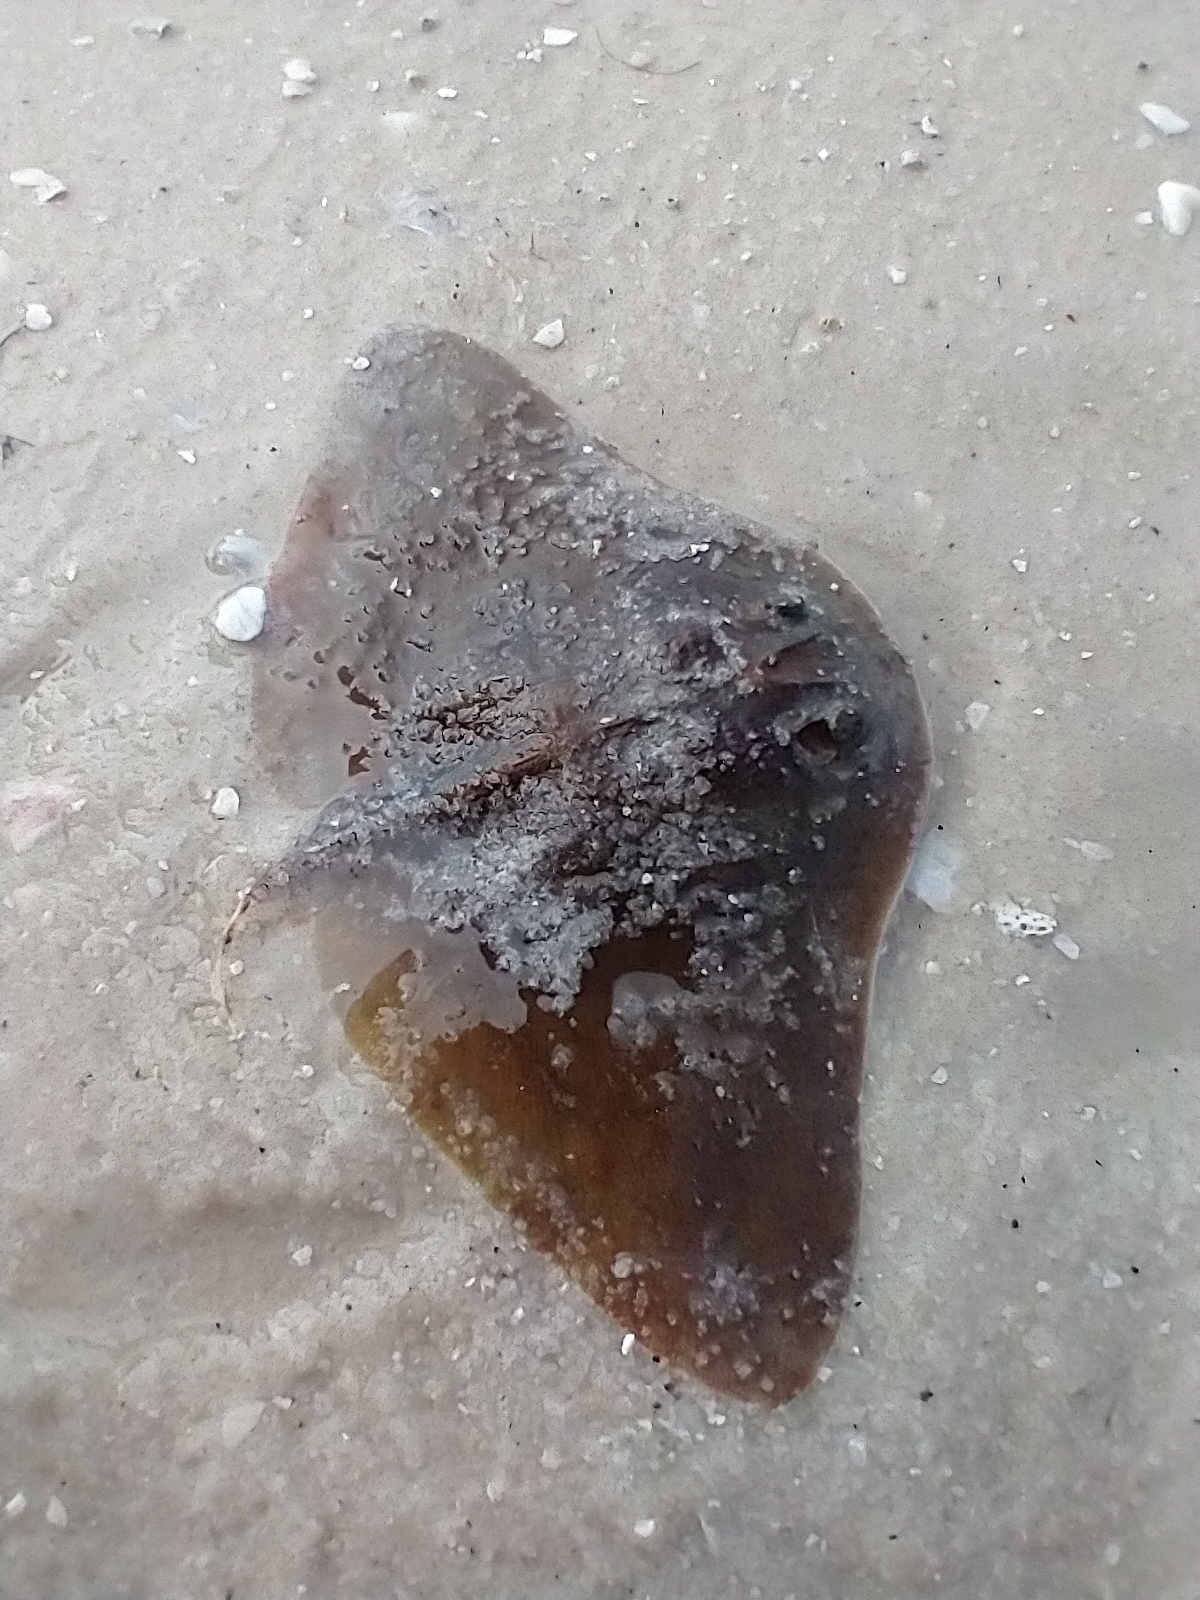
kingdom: Animalia
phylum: Chordata
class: Elasmobranchii
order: Myliobatiformes
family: Gymnuridae
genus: Gymnura
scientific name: Gymnura lessae
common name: Lessa's butterfly ray
